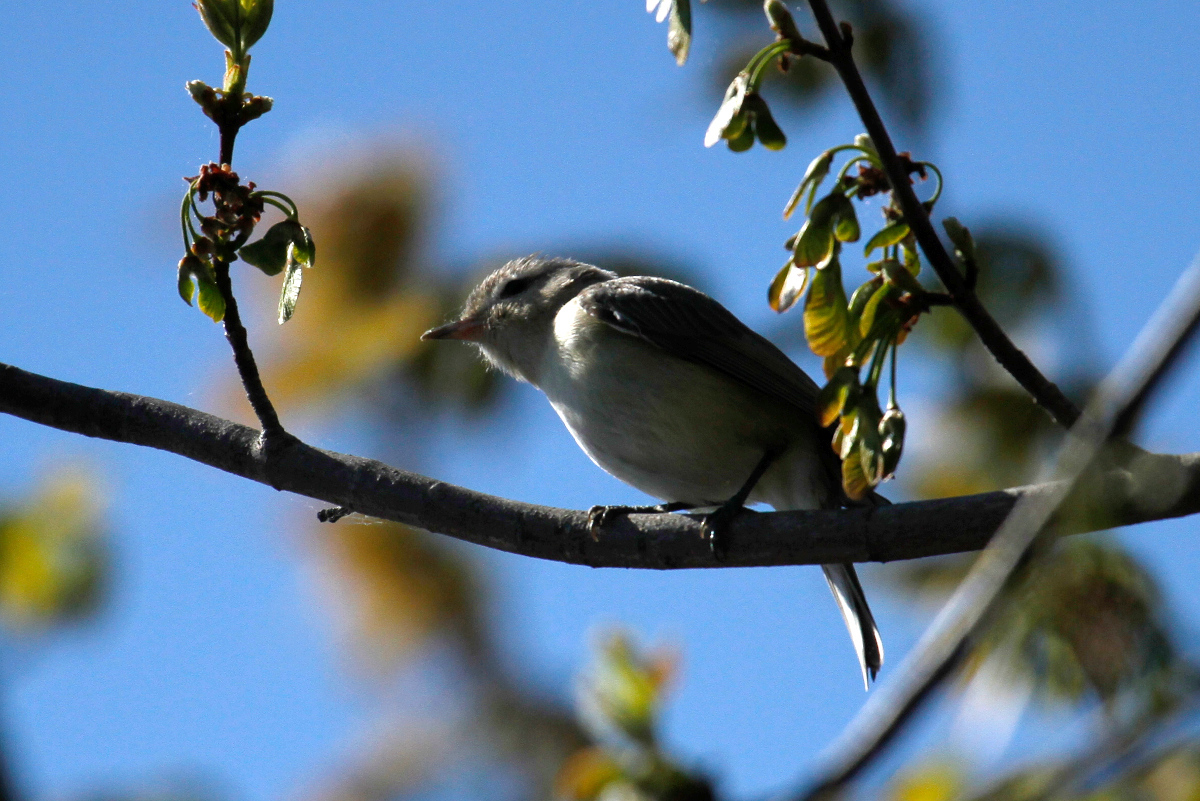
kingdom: Animalia
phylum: Chordata
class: Aves
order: Passeriformes
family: Vireonidae
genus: Vireo
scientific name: Vireo gilvus
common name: Warbling vireo
